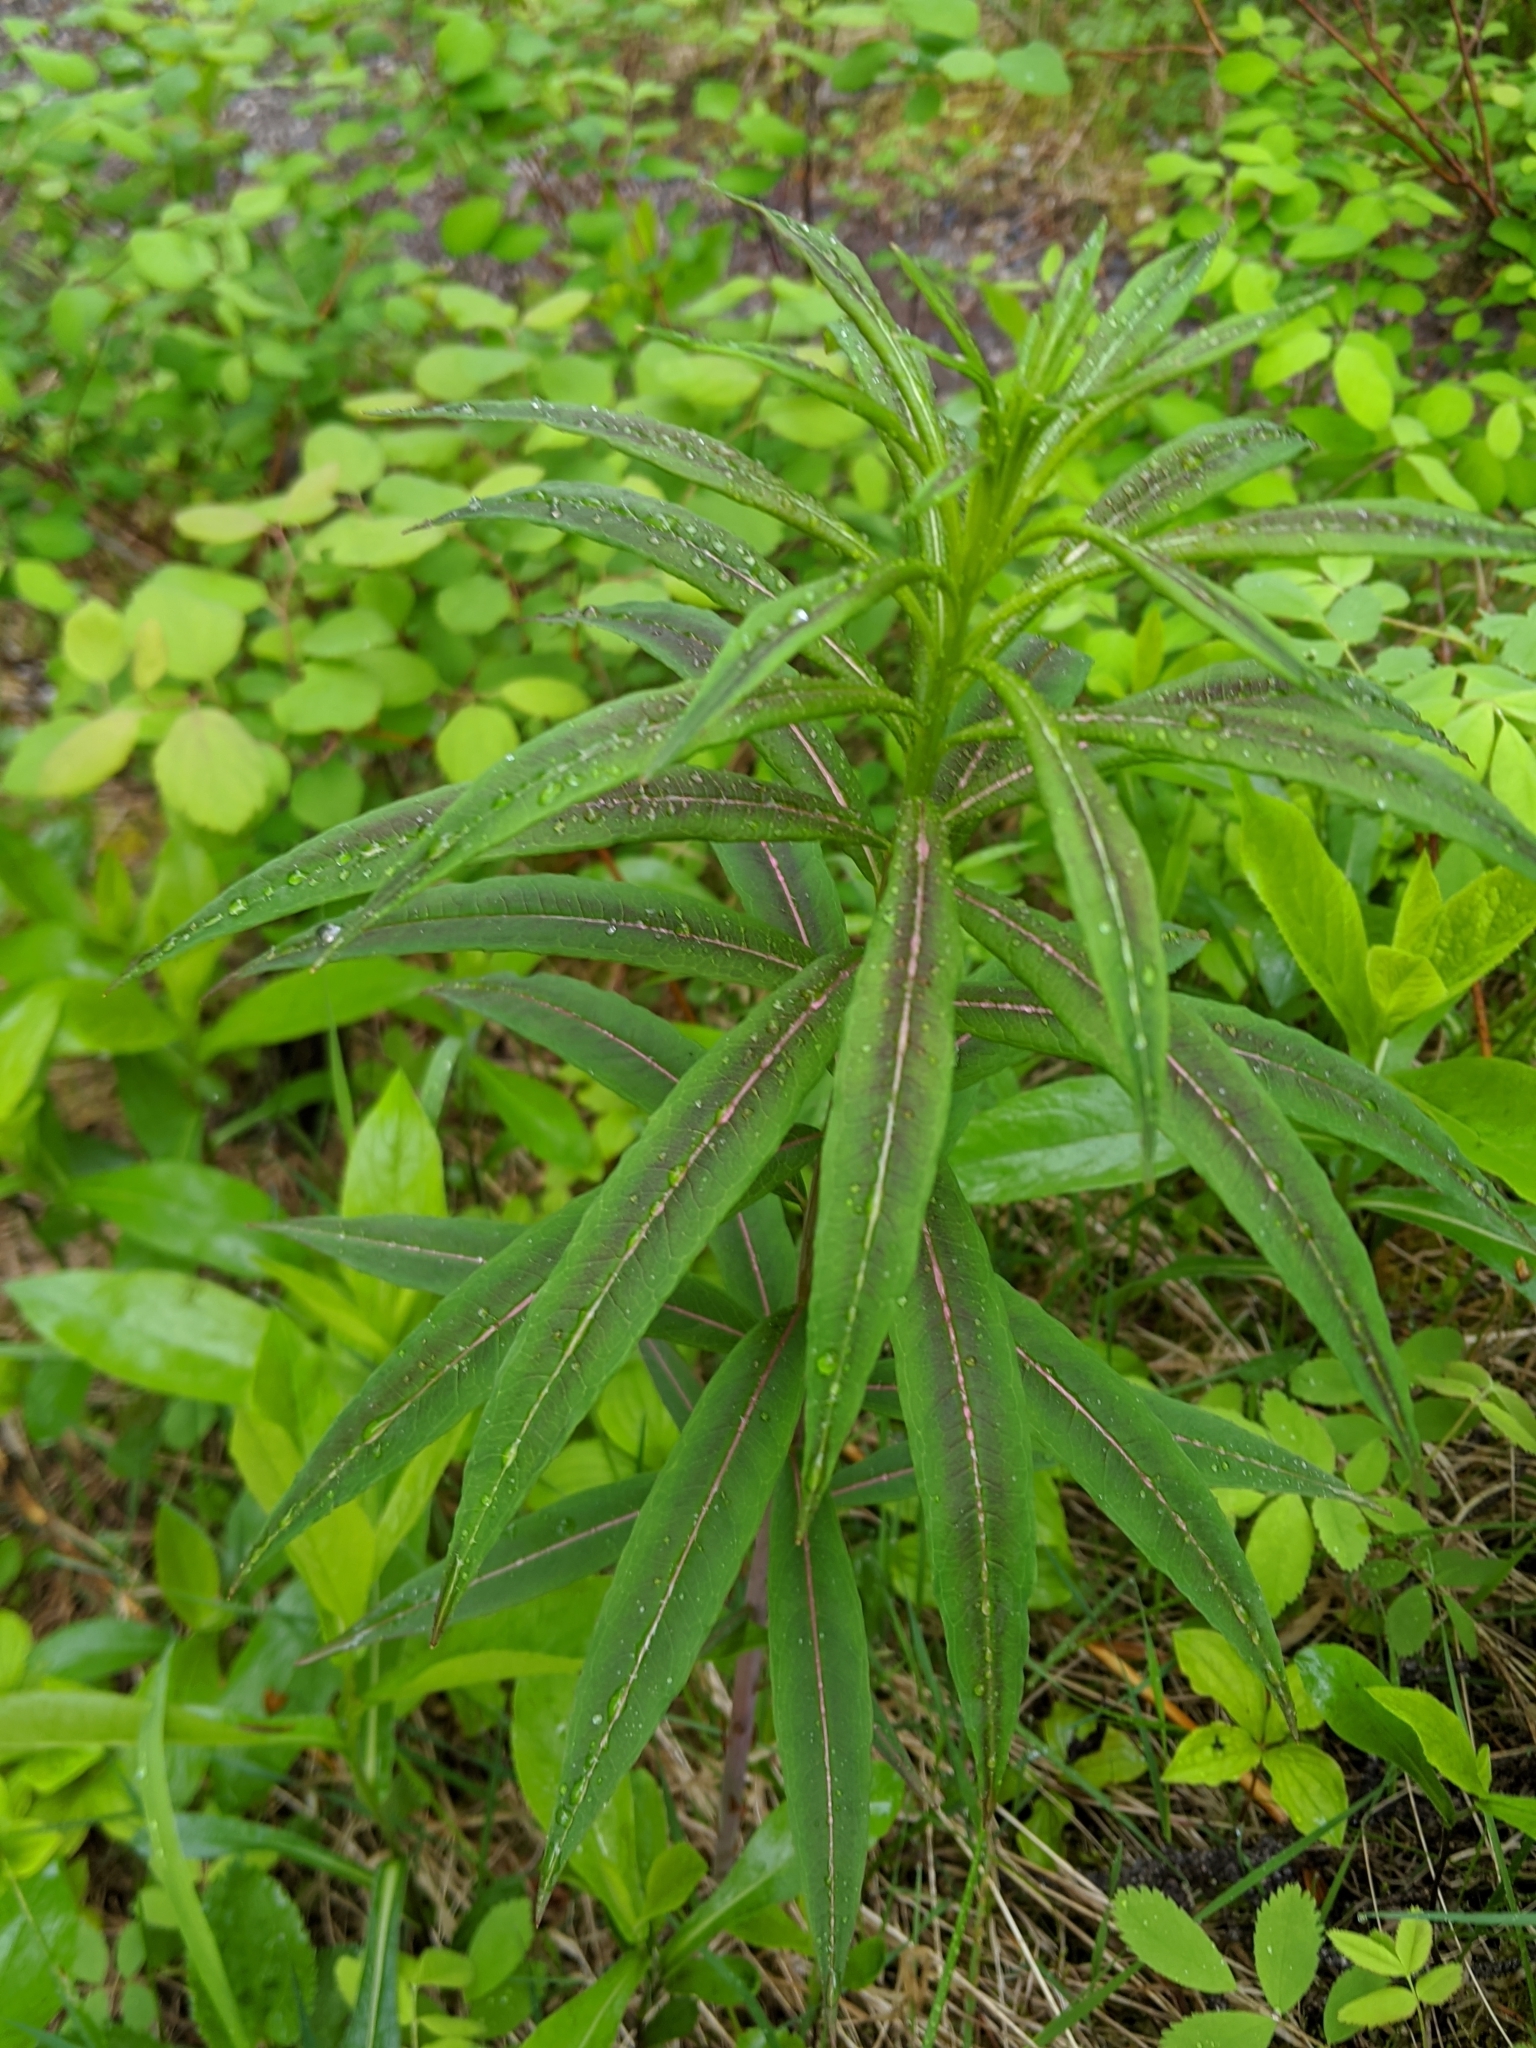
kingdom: Plantae
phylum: Tracheophyta
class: Magnoliopsida
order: Myrtales
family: Onagraceae
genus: Chamaenerion
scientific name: Chamaenerion angustifolium
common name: Fireweed
